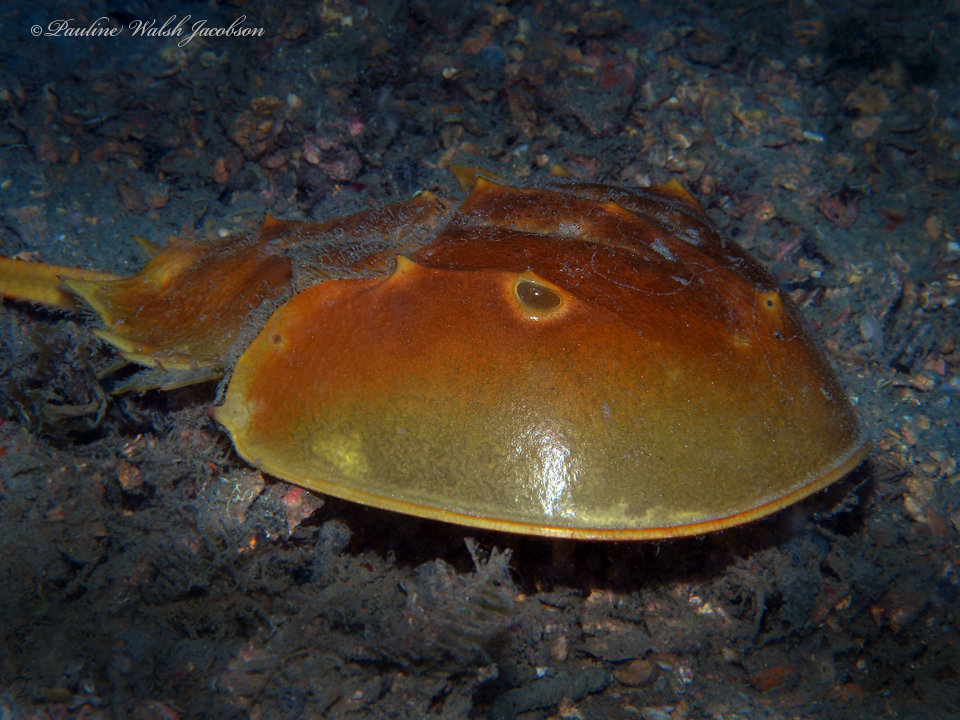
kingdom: Animalia
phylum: Arthropoda
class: Merostomata
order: Xiphosurida
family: Limulidae
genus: Limulus
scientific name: Limulus polyphemus
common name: Horseshoe crab
